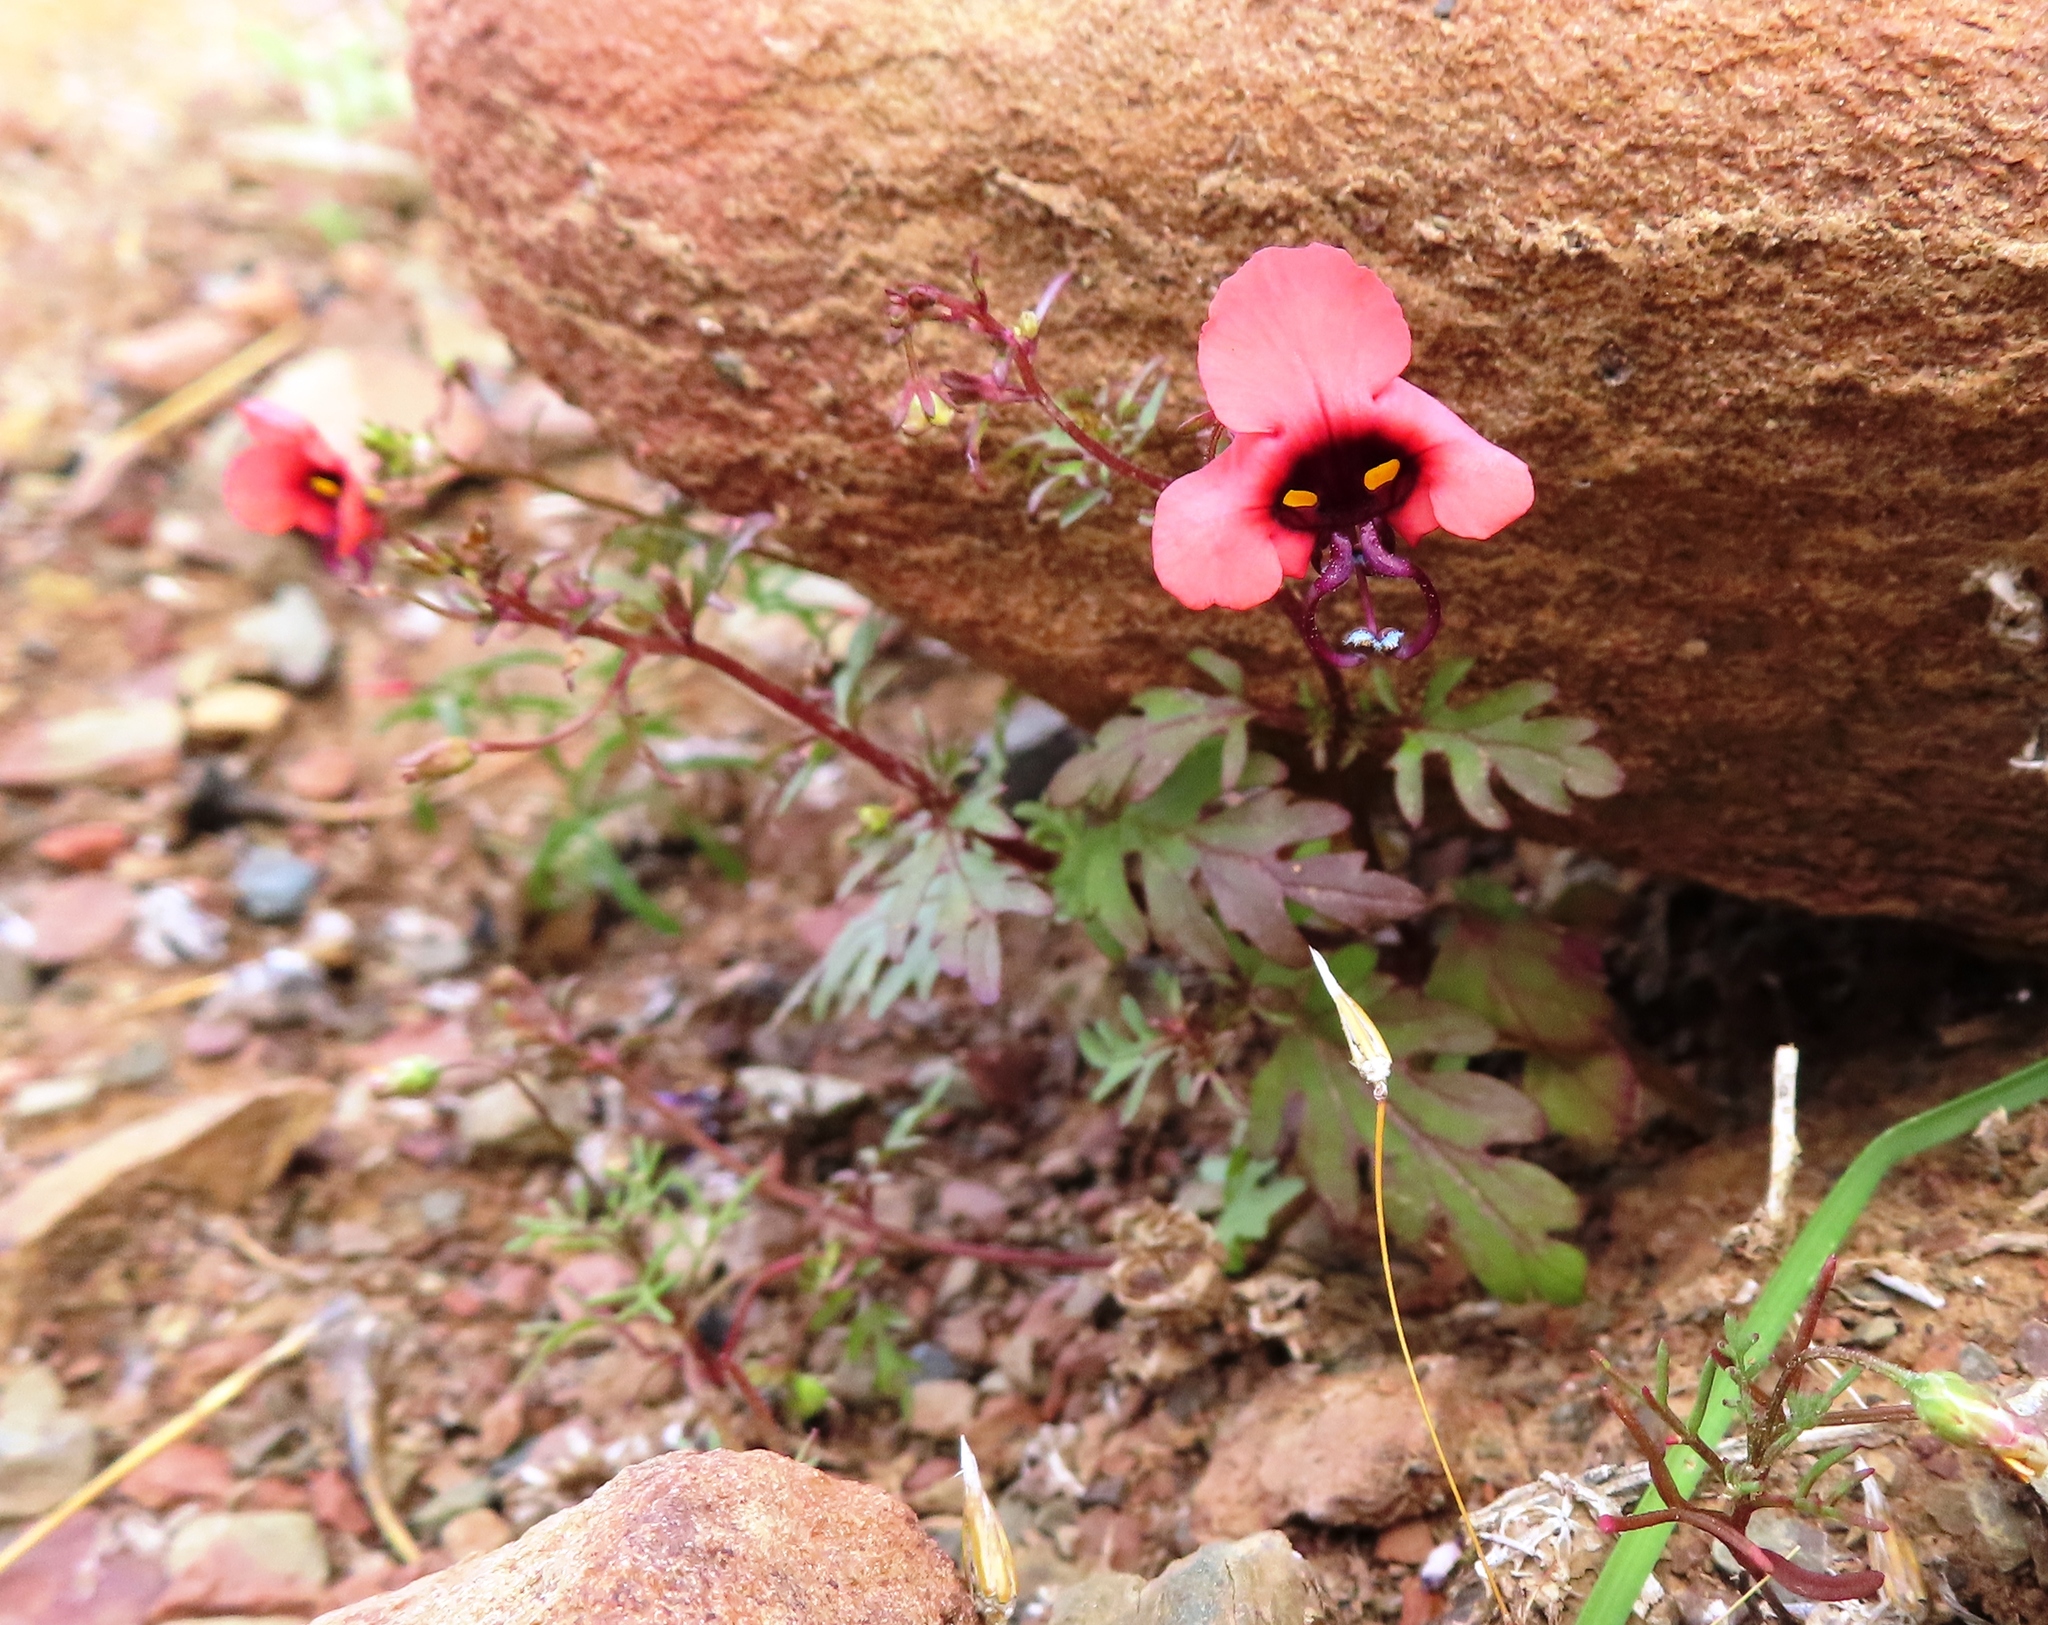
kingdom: Plantae
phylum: Tracheophyta
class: Magnoliopsida
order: Lamiales
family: Scrophulariaceae
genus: Alonsoa
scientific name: Alonsoa unilabiata
